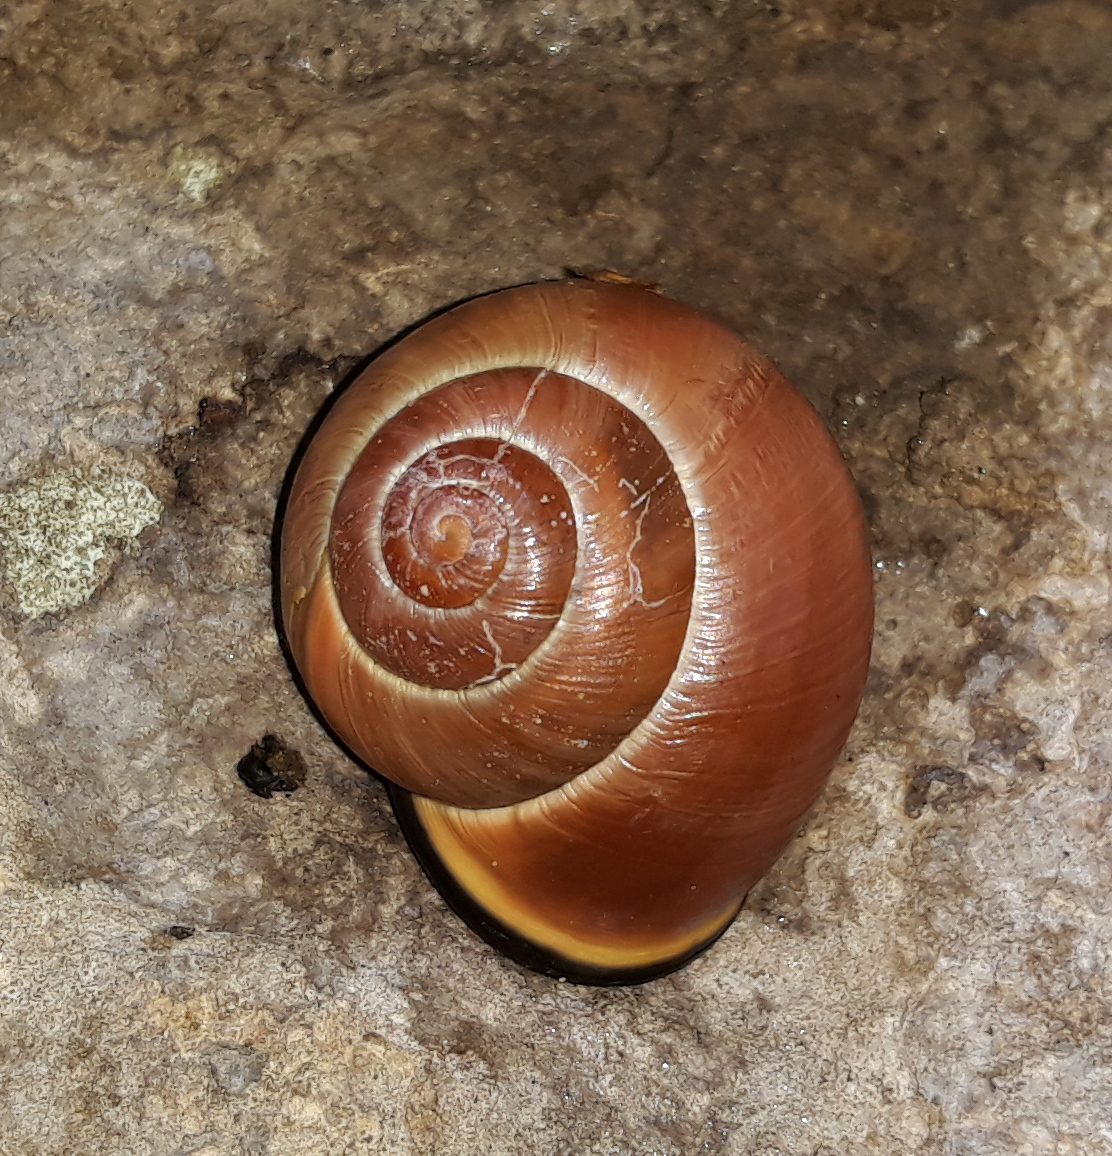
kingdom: Animalia
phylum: Mollusca
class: Gastropoda
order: Stylommatophora
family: Helicidae
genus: Cepaea
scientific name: Cepaea nemoralis
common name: Grovesnail
